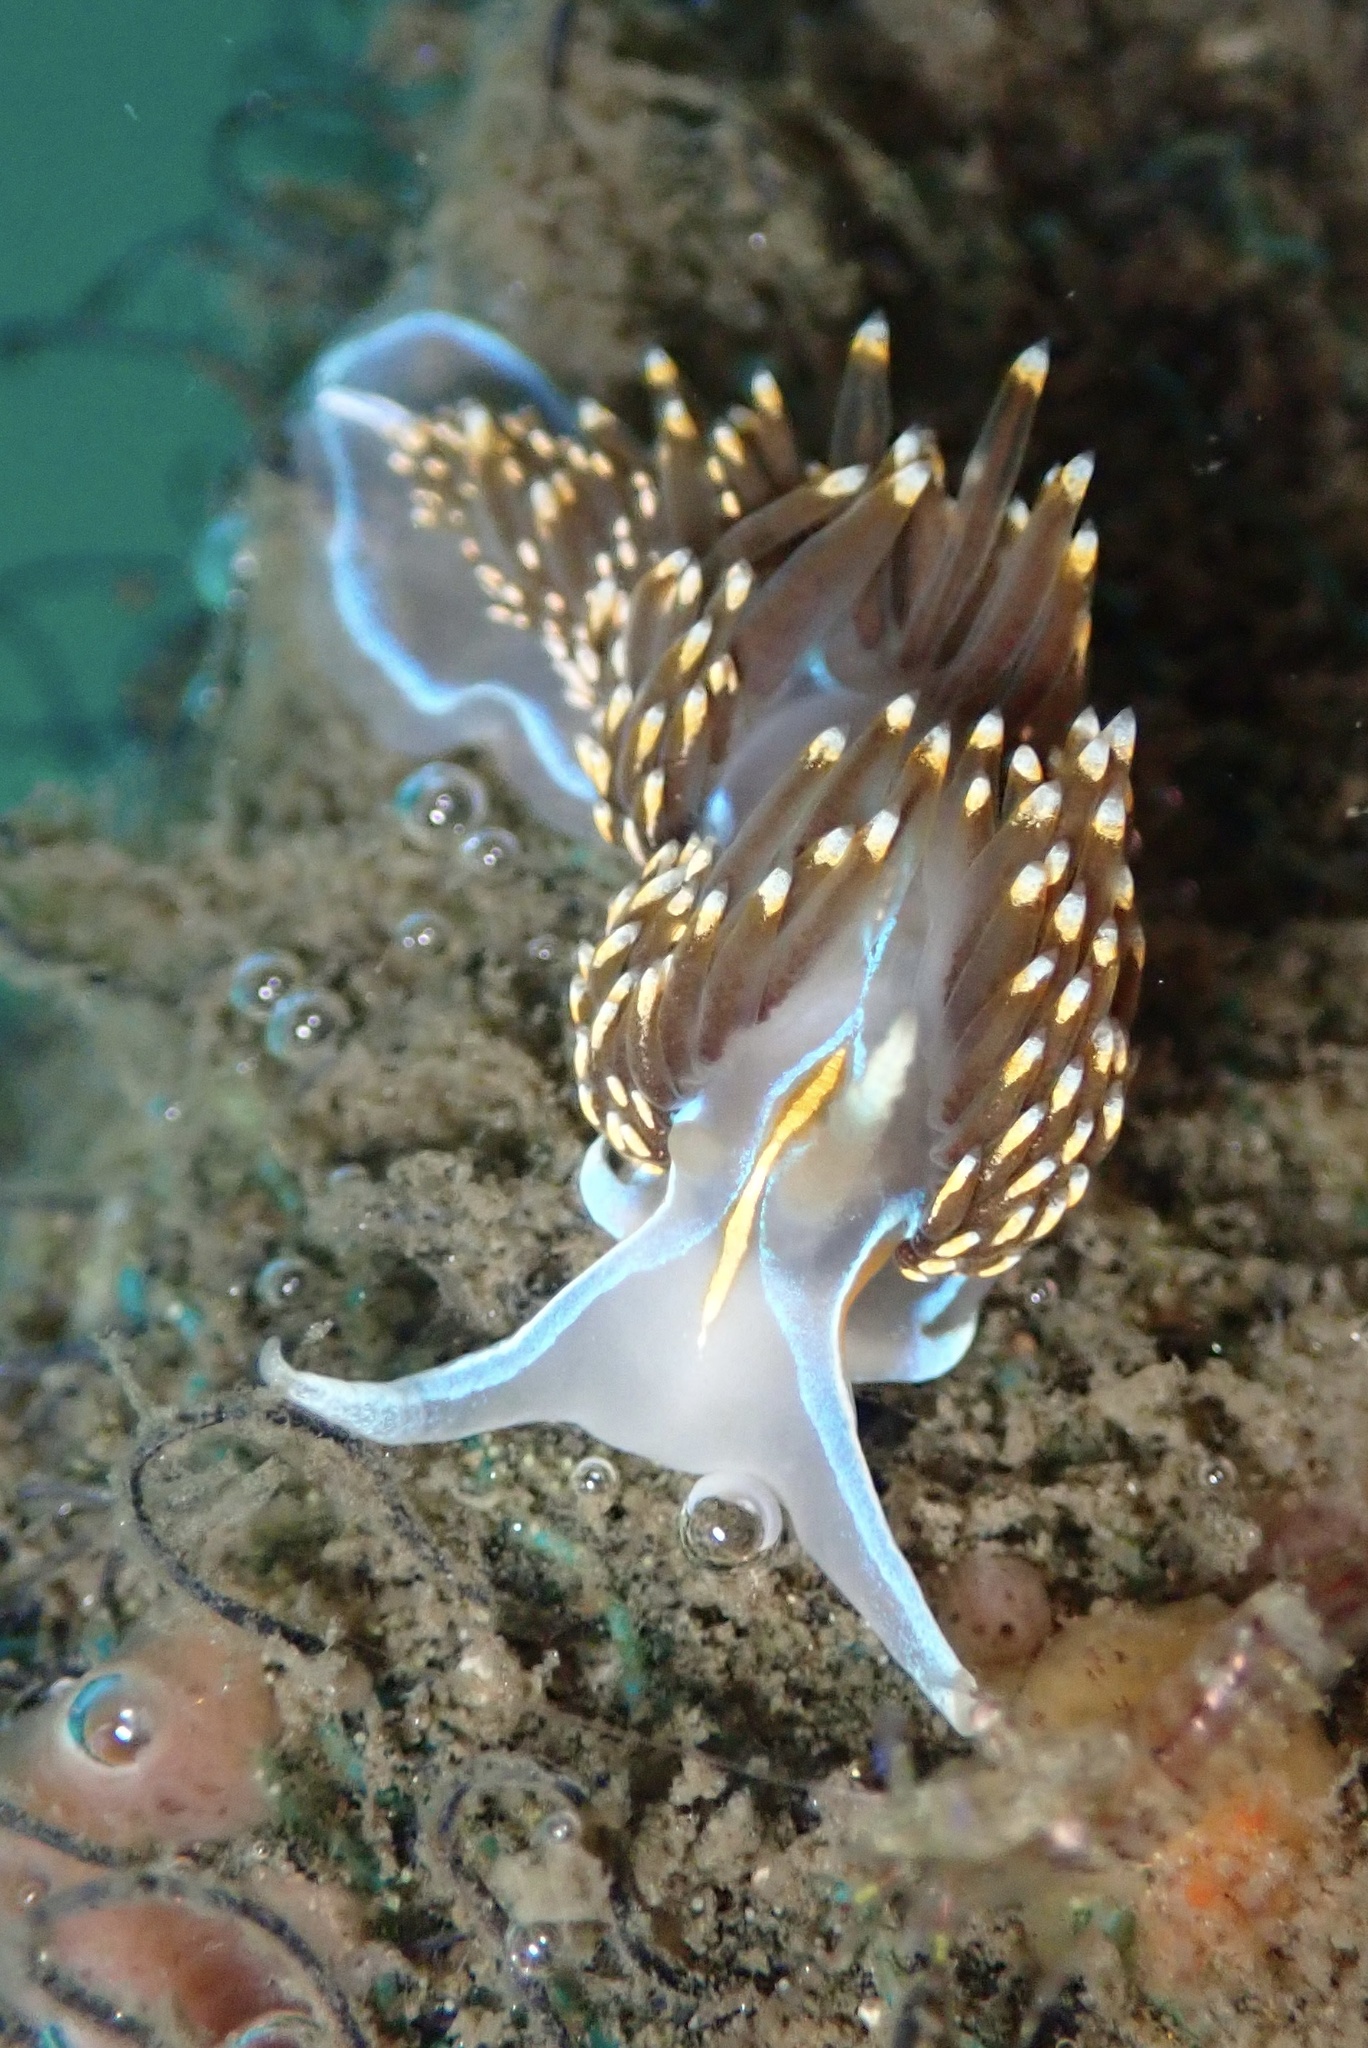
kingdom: Animalia
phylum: Mollusca
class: Gastropoda
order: Nudibranchia
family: Myrrhinidae
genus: Hermissenda
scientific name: Hermissenda opalescens
